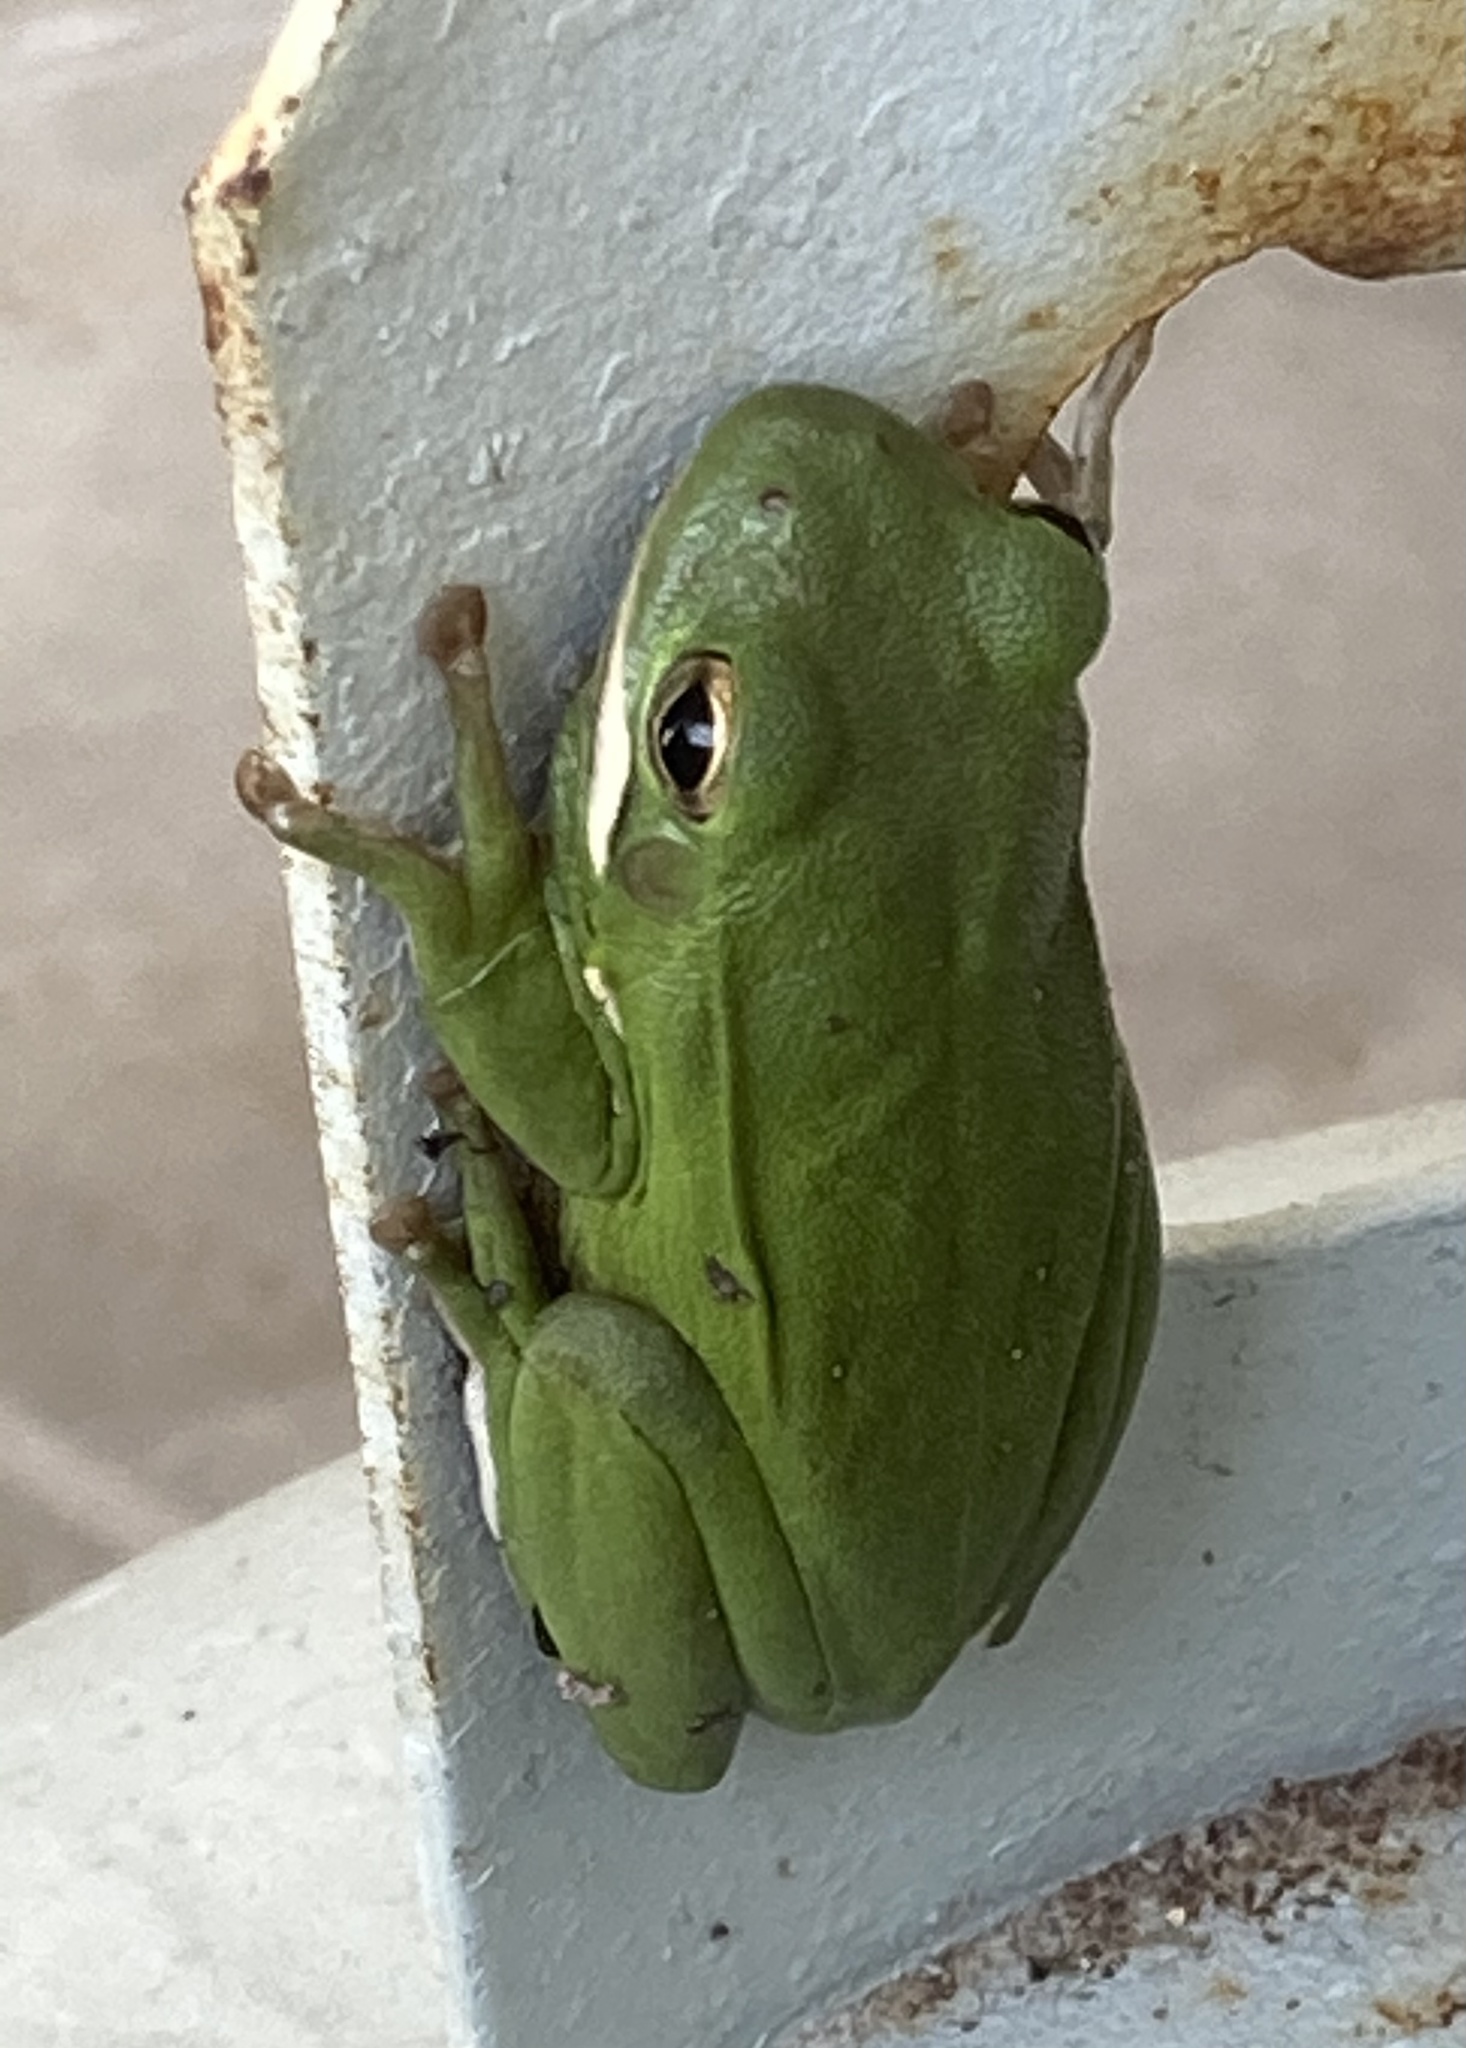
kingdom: Animalia
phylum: Chordata
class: Amphibia
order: Anura
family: Hylidae
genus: Dryophytes
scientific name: Dryophytes cinereus
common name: Green treefrog
